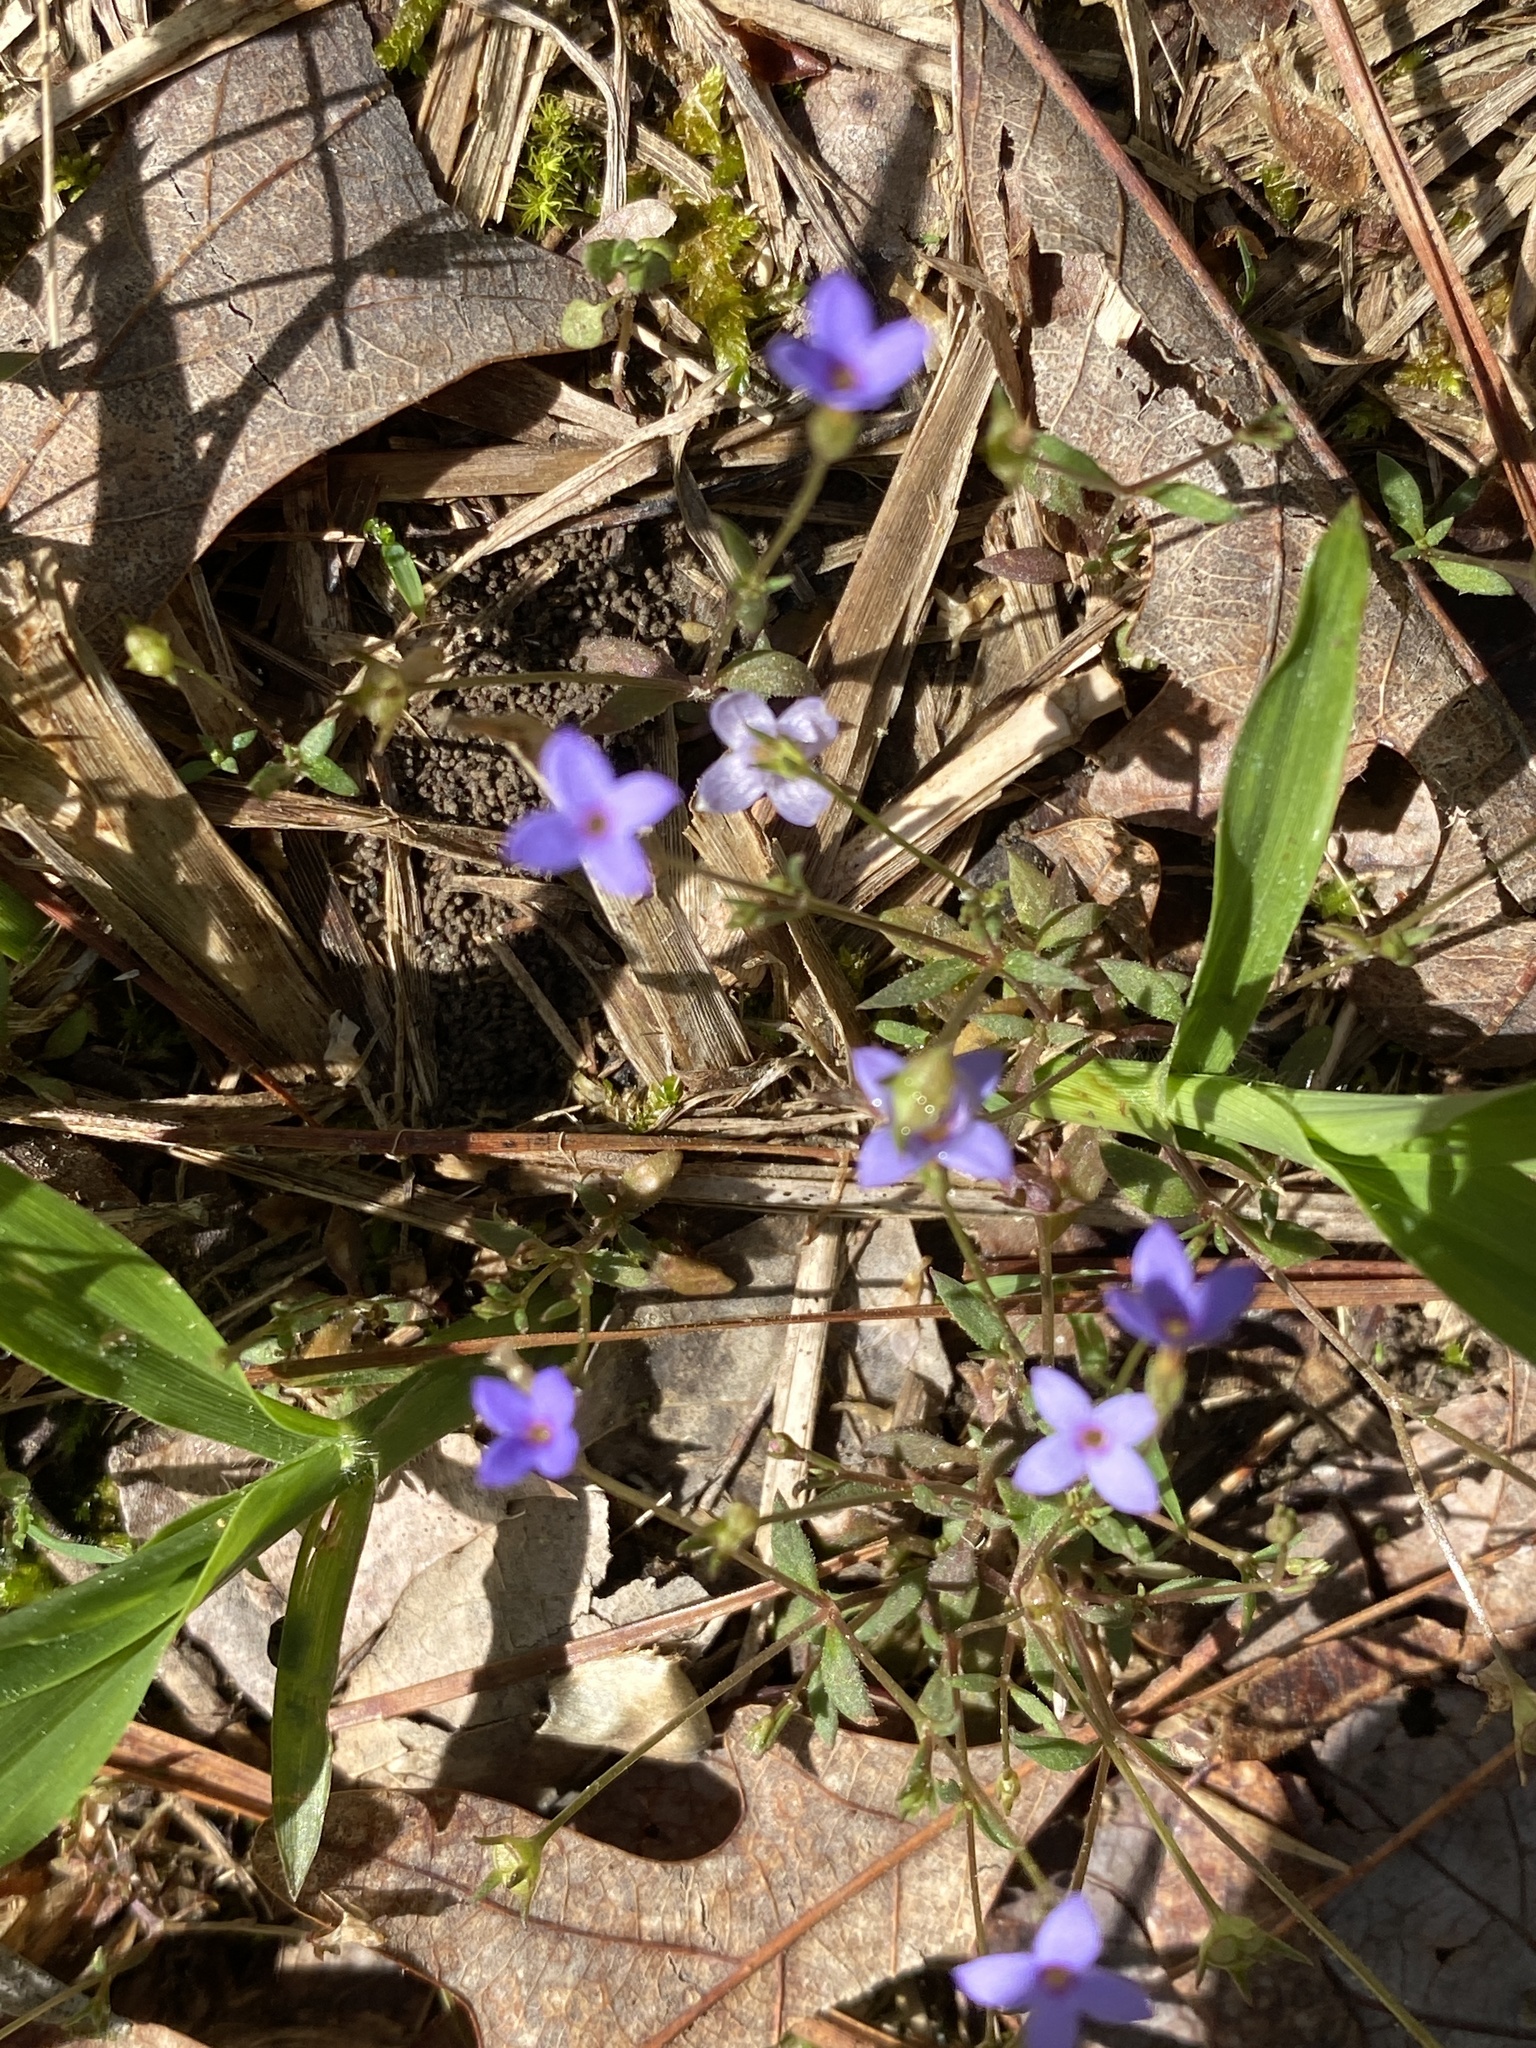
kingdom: Plantae
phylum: Tracheophyta
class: Magnoliopsida
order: Gentianales
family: Rubiaceae
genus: Houstonia
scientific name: Houstonia pusilla
